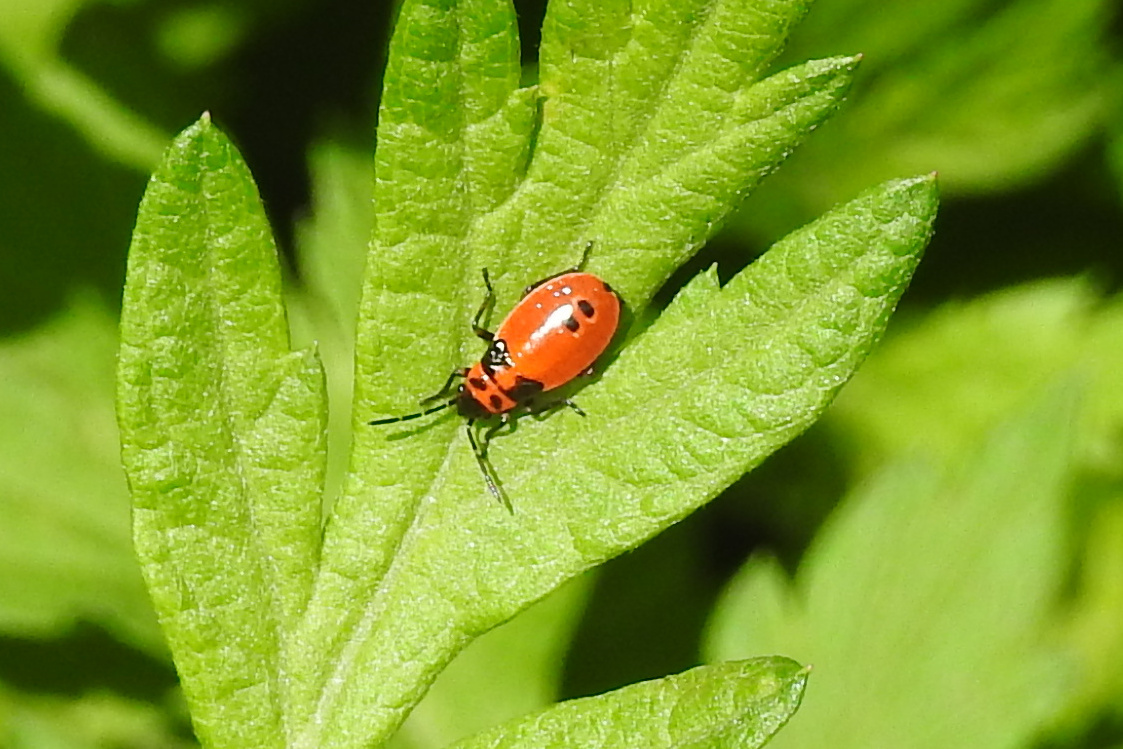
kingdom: Animalia
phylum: Arthropoda
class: Insecta
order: Hemiptera
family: Lygaeidae
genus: Lygaeus
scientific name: Lygaeus turcicus
